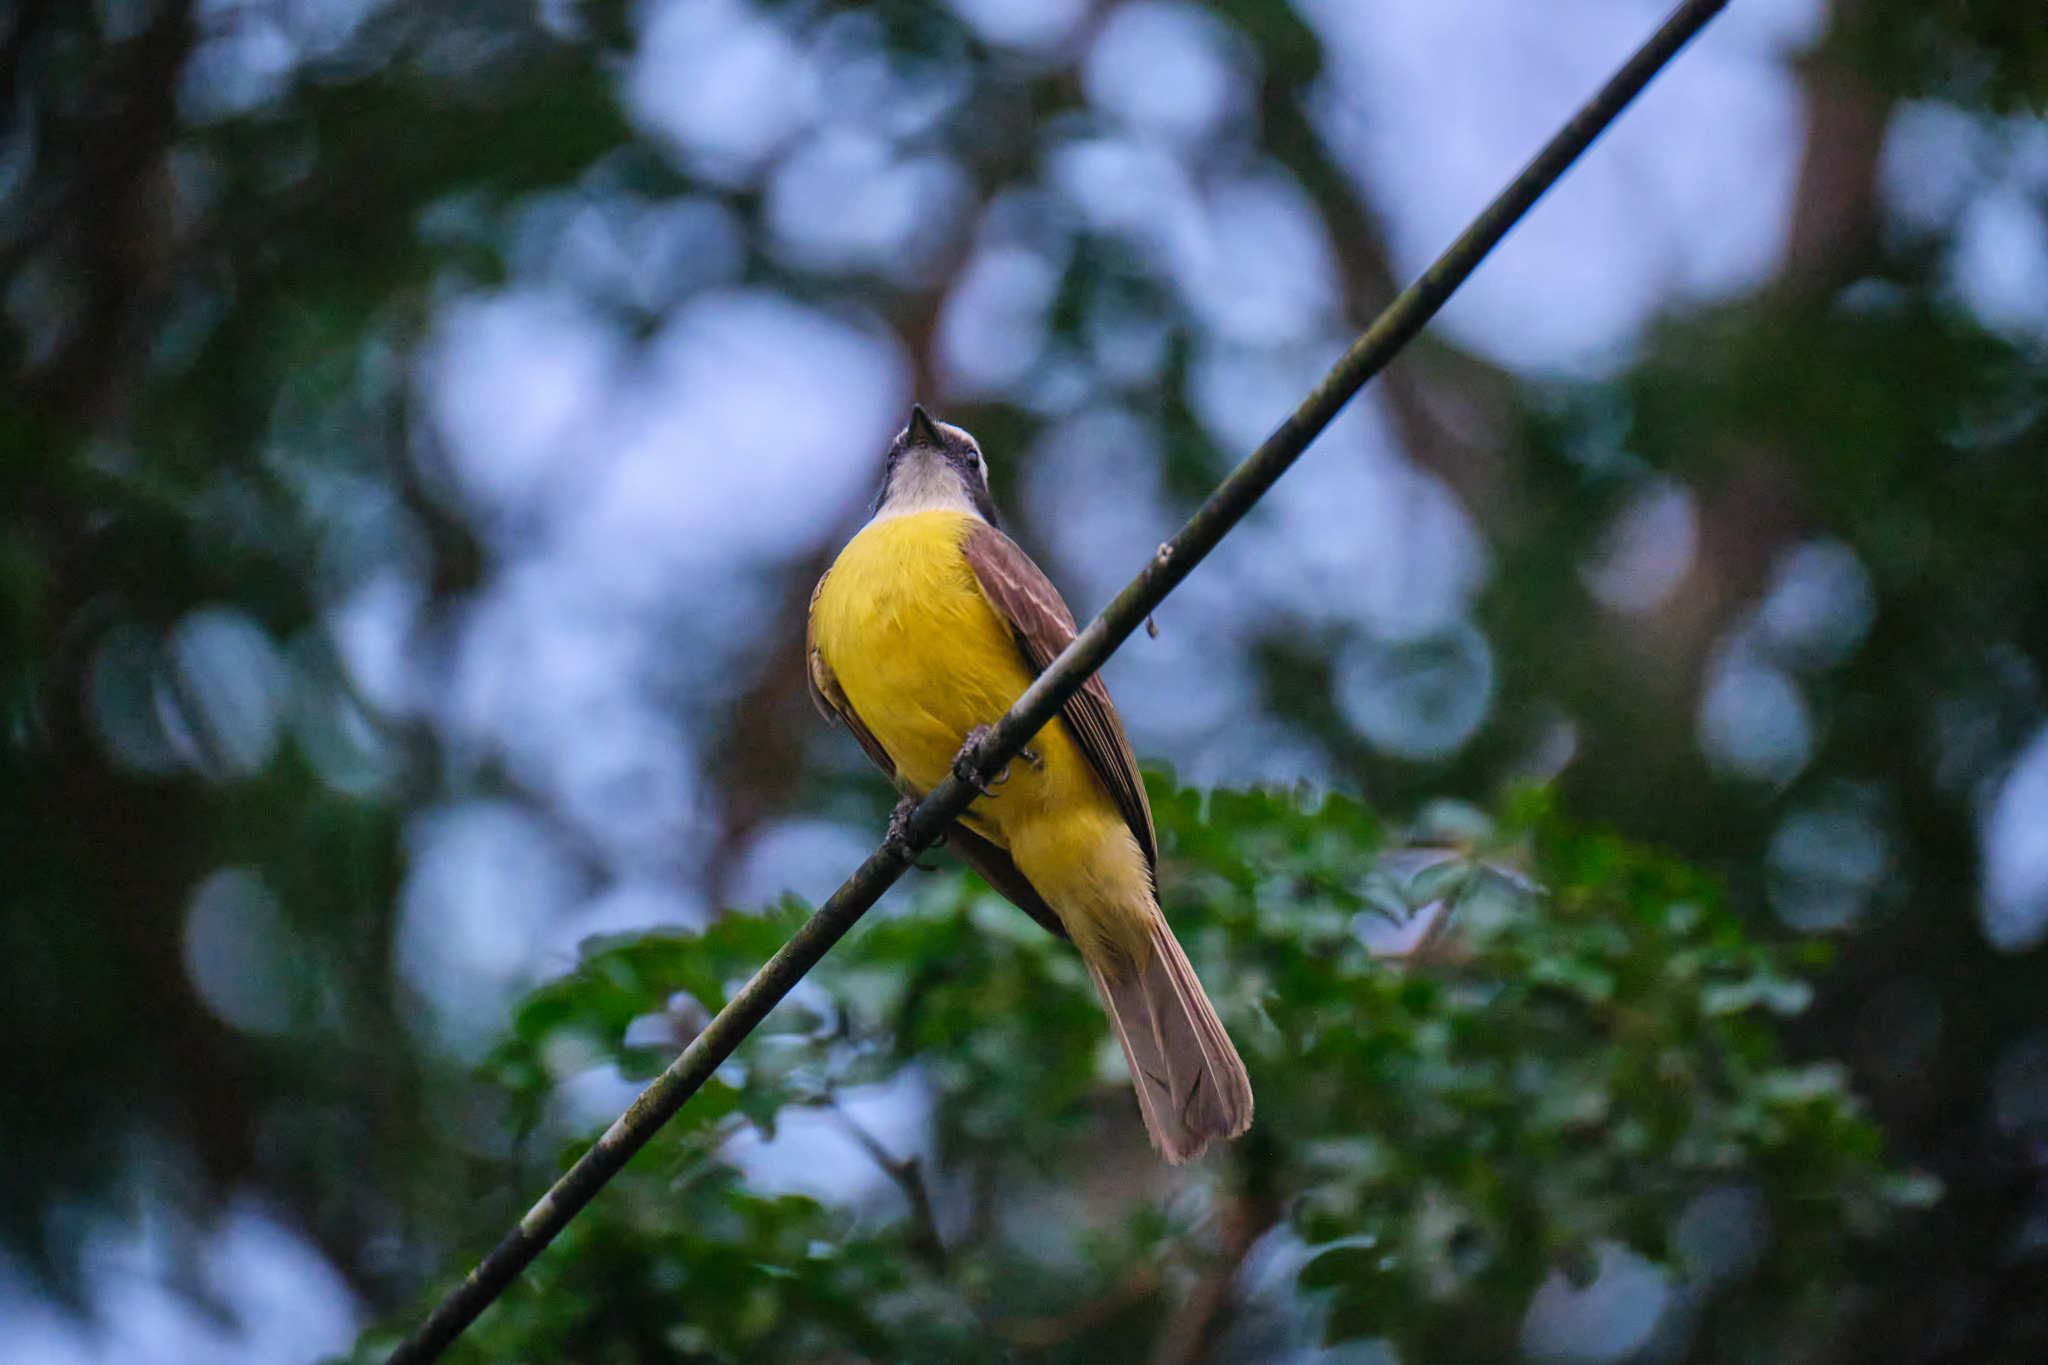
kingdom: Animalia
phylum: Chordata
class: Aves
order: Passeriformes
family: Tyrannidae
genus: Myiozetetes
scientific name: Myiozetetes similis
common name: Social flycatcher
